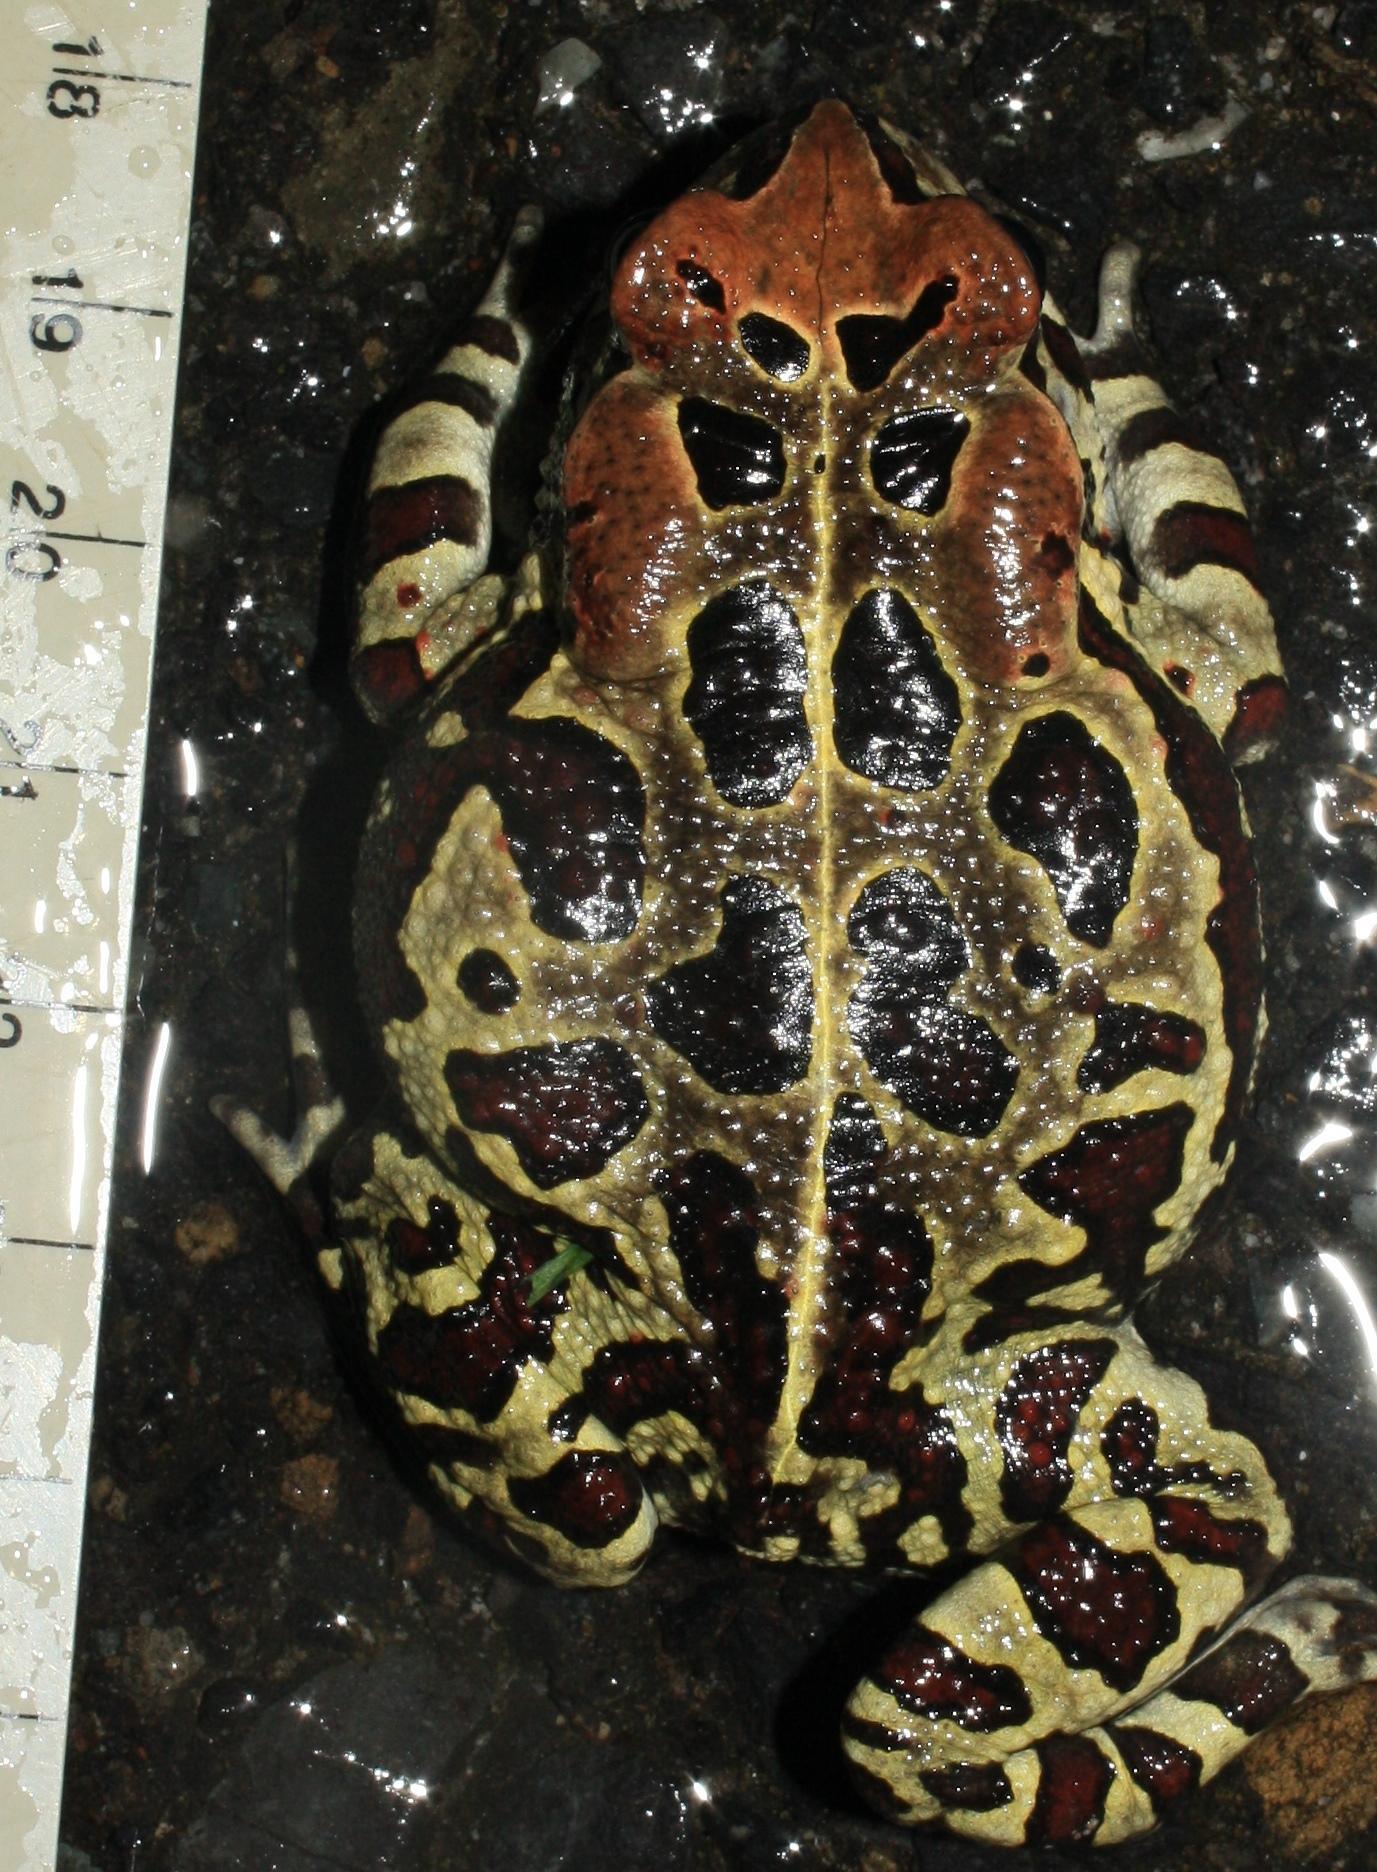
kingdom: Animalia
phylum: Chordata
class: Amphibia
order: Anura
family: Bufonidae
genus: Sclerophrys
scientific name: Sclerophrys pantherina
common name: Panther toad
